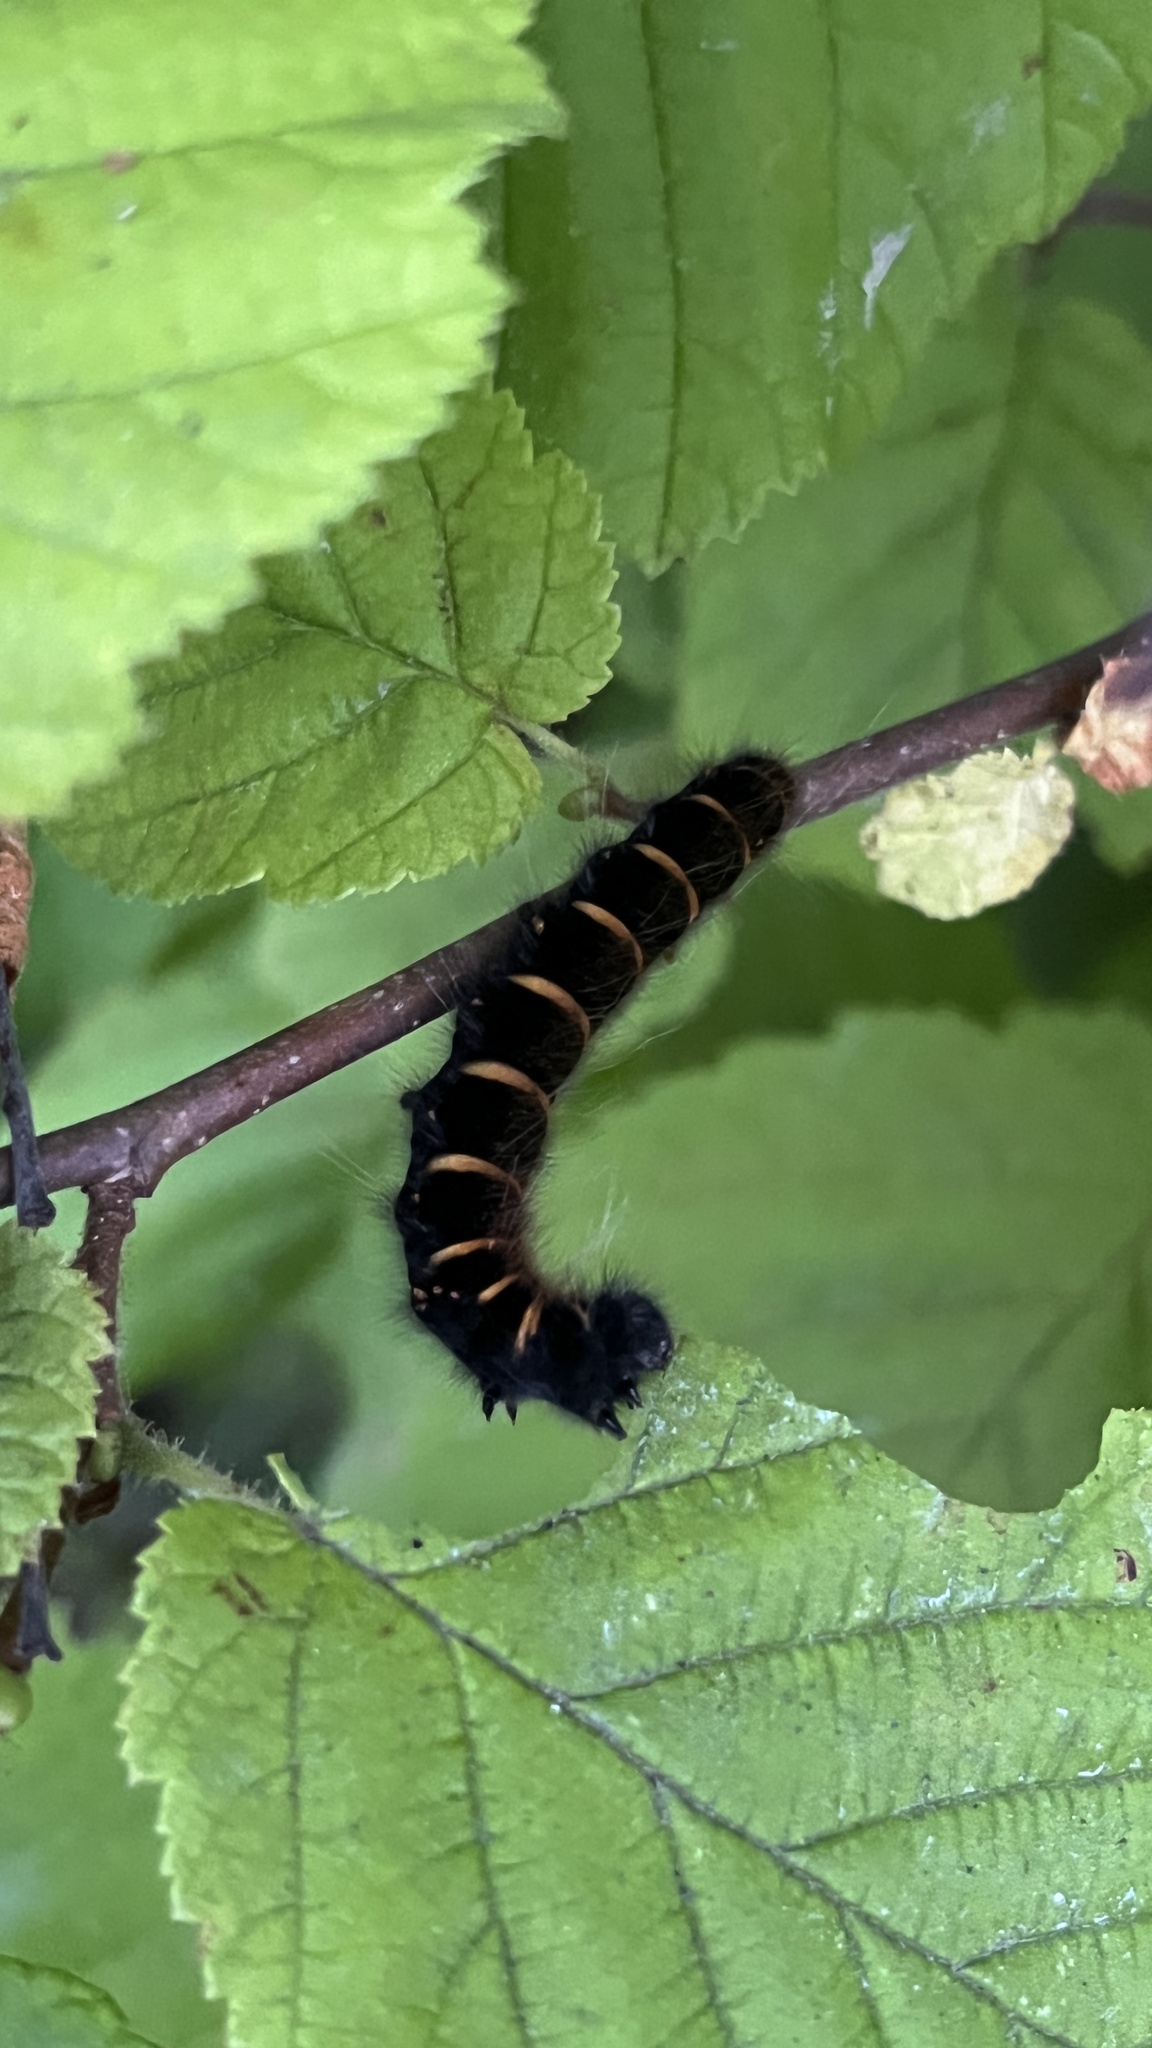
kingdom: Animalia
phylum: Arthropoda
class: Insecta
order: Lepidoptera
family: Lasiocampidae
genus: Macrothylacia
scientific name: Macrothylacia rubi
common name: Fox moth
